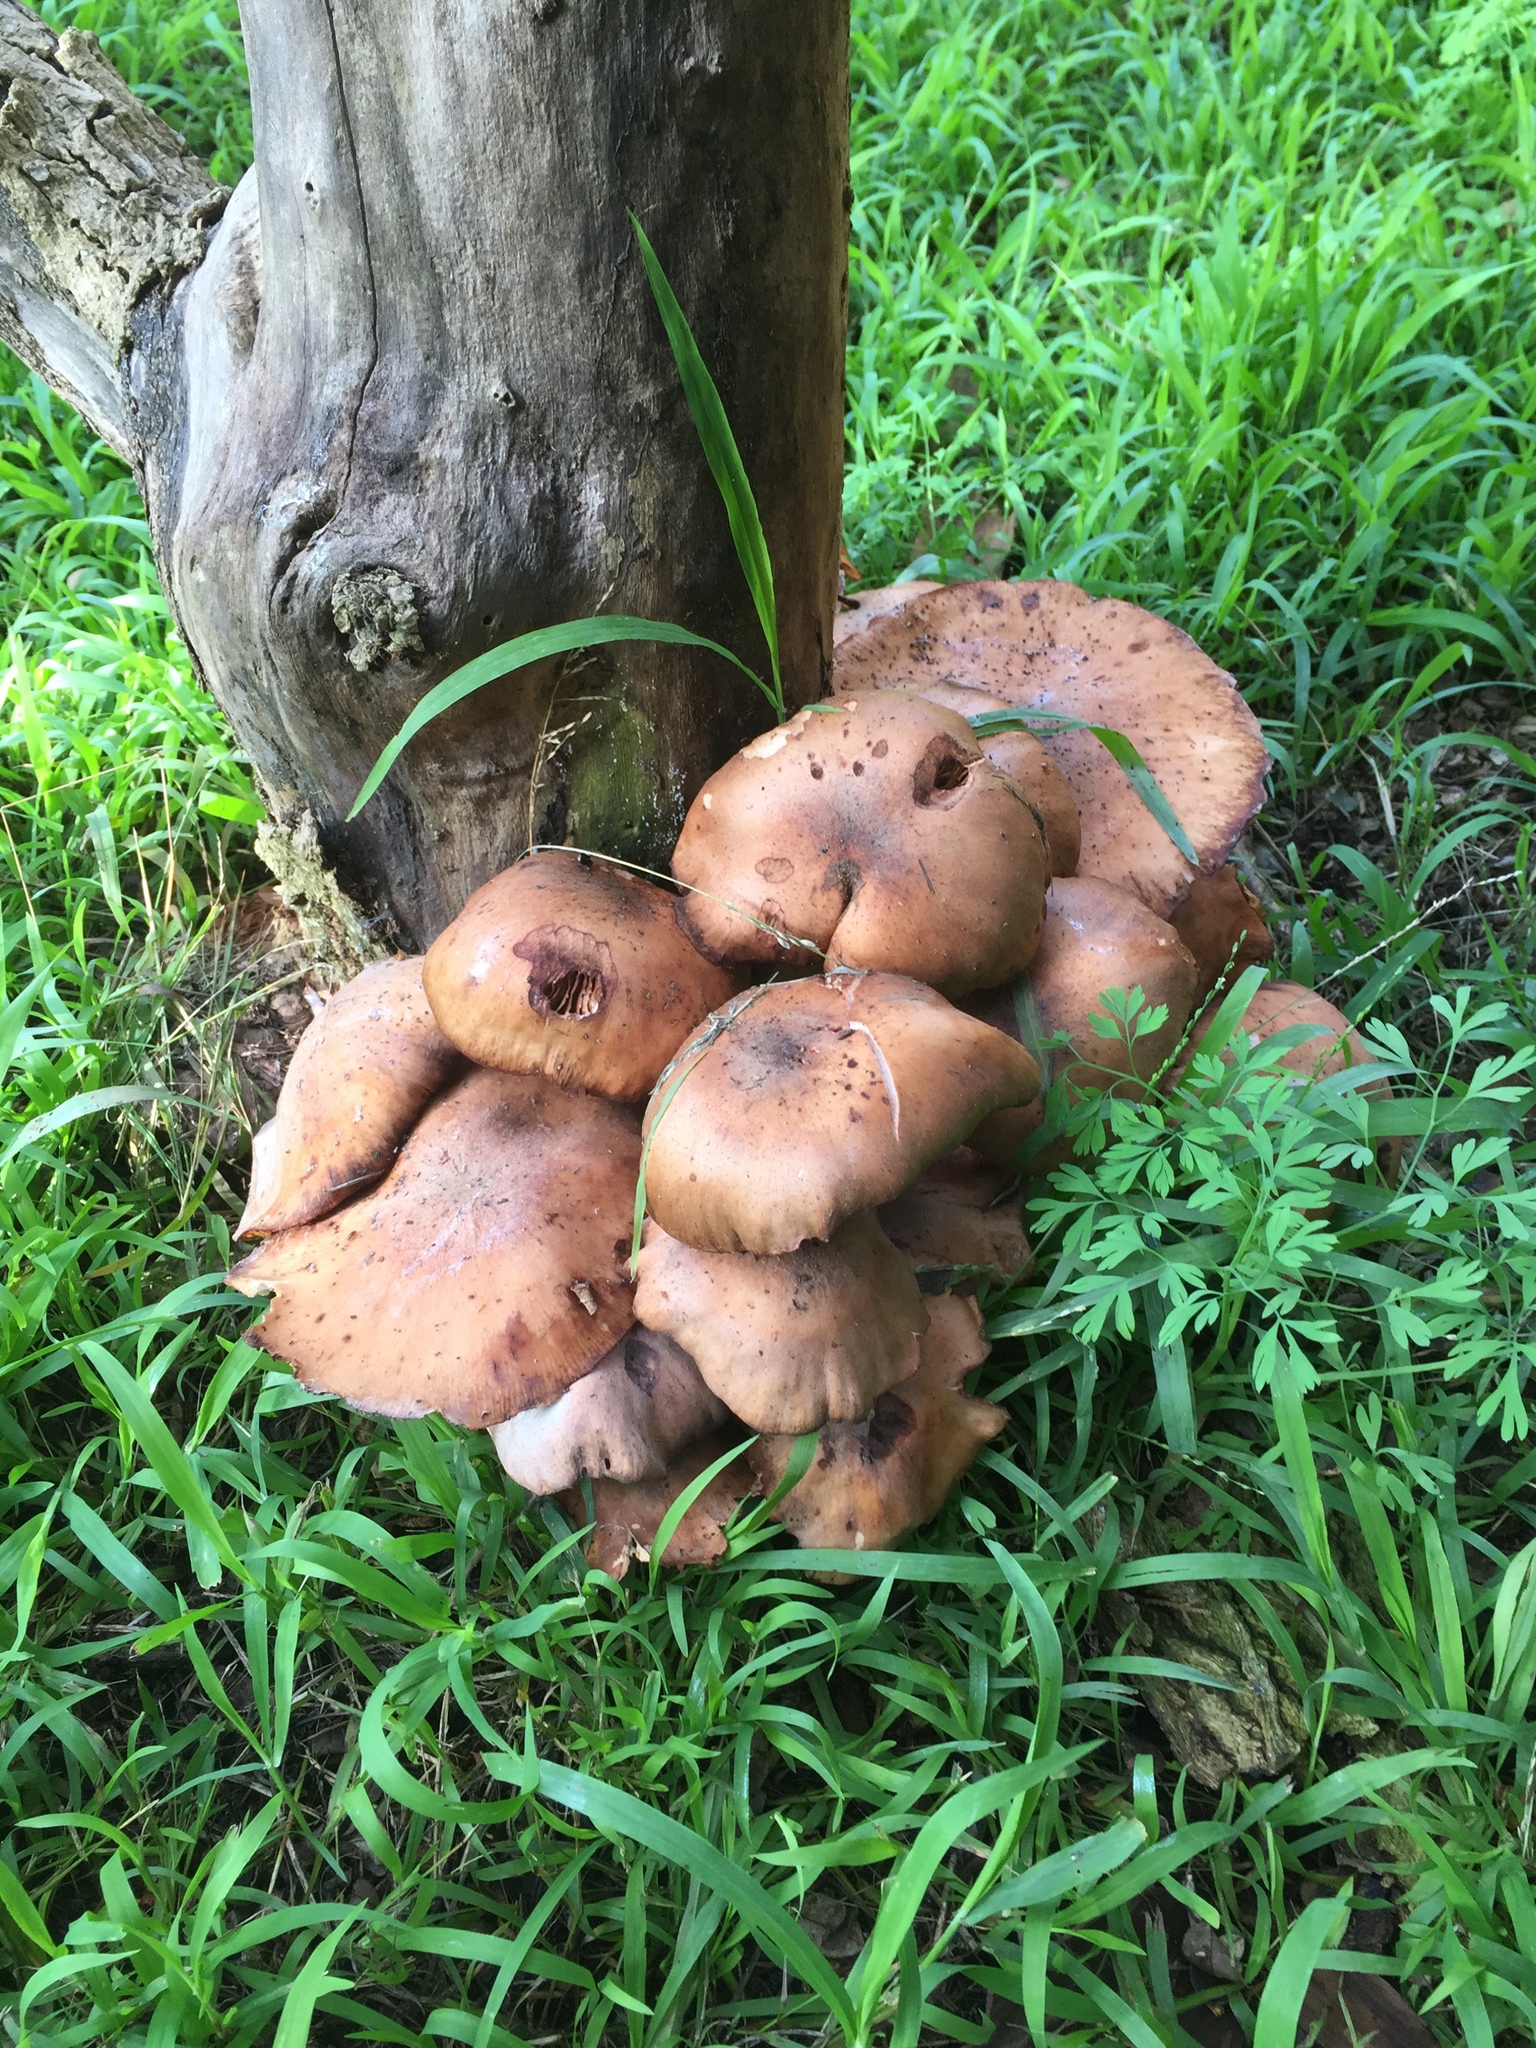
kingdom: Fungi
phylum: Basidiomycota
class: Agaricomycetes
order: Agaricales
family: Physalacriaceae
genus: Armillaria
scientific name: Armillaria mellea
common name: Honey fungus
